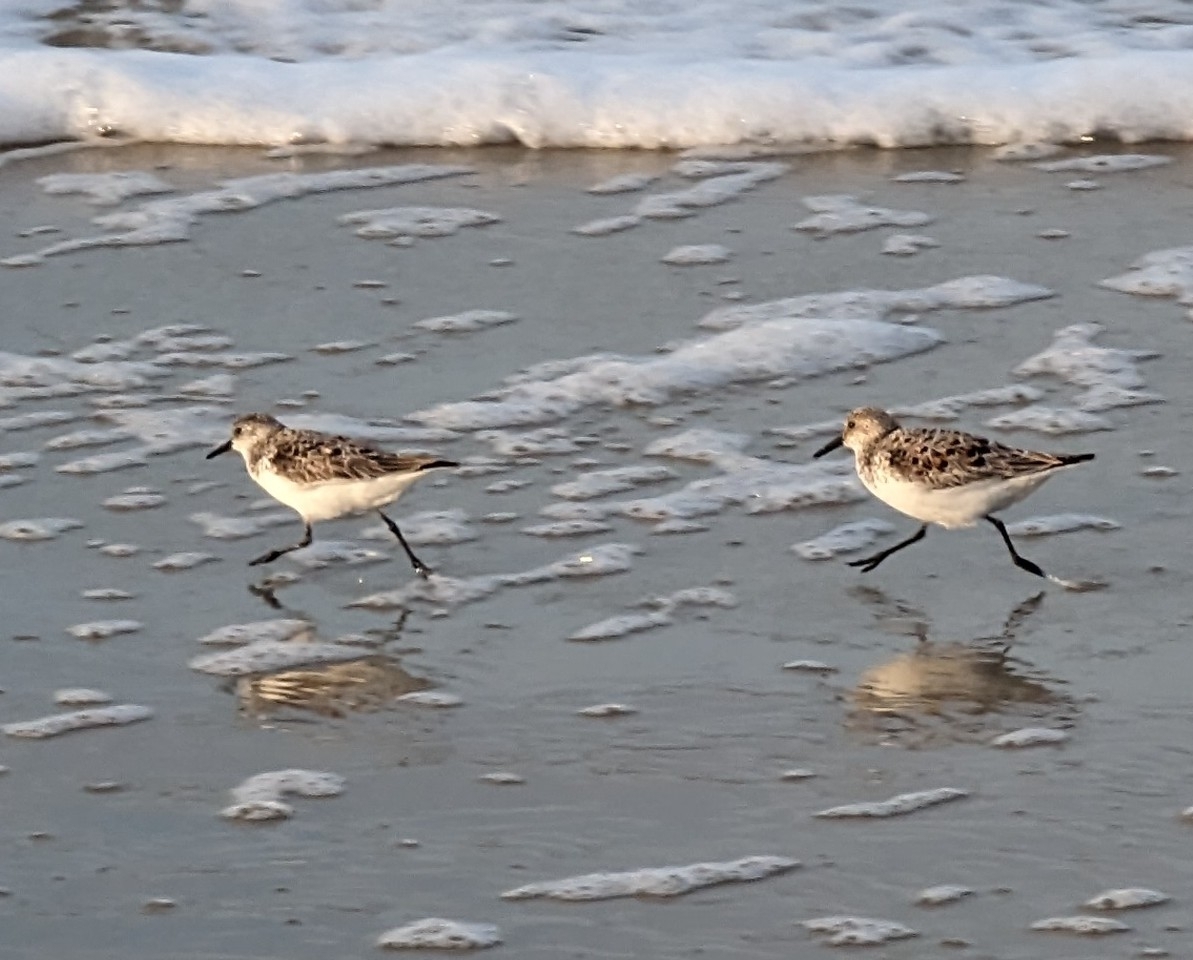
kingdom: Animalia
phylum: Chordata
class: Aves
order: Charadriiformes
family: Scolopacidae
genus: Calidris
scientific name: Calidris alba
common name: Sanderling
